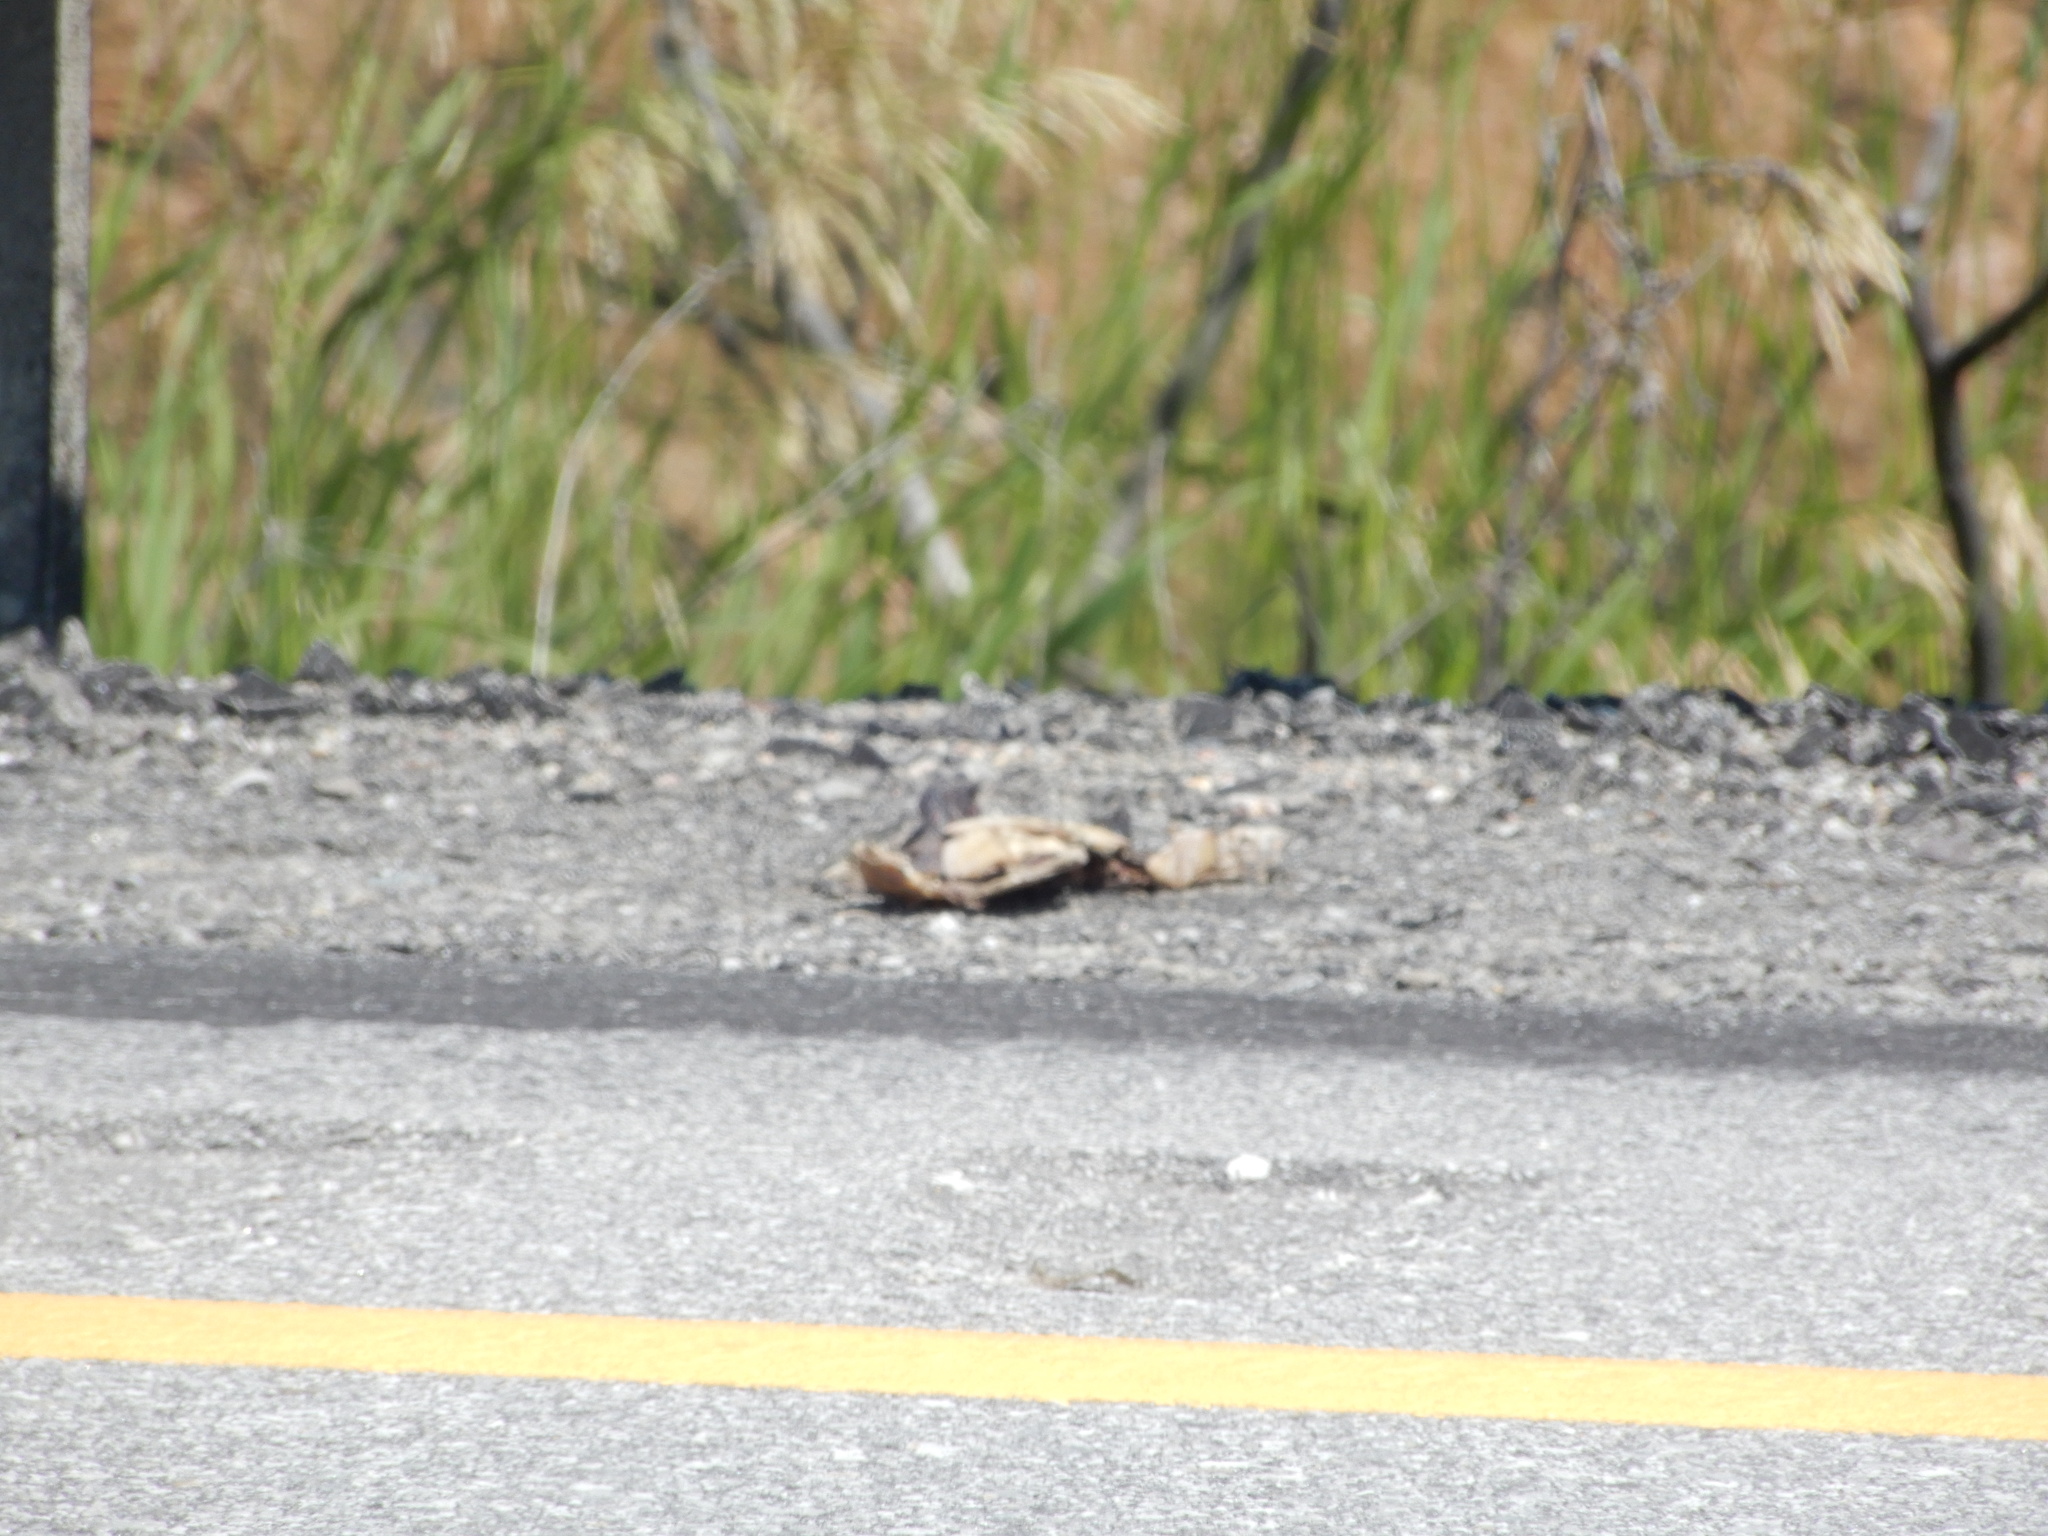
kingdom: Animalia
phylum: Chordata
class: Testudines
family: Emydidae
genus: Chrysemys
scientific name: Chrysemys picta
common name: Painted turtle
